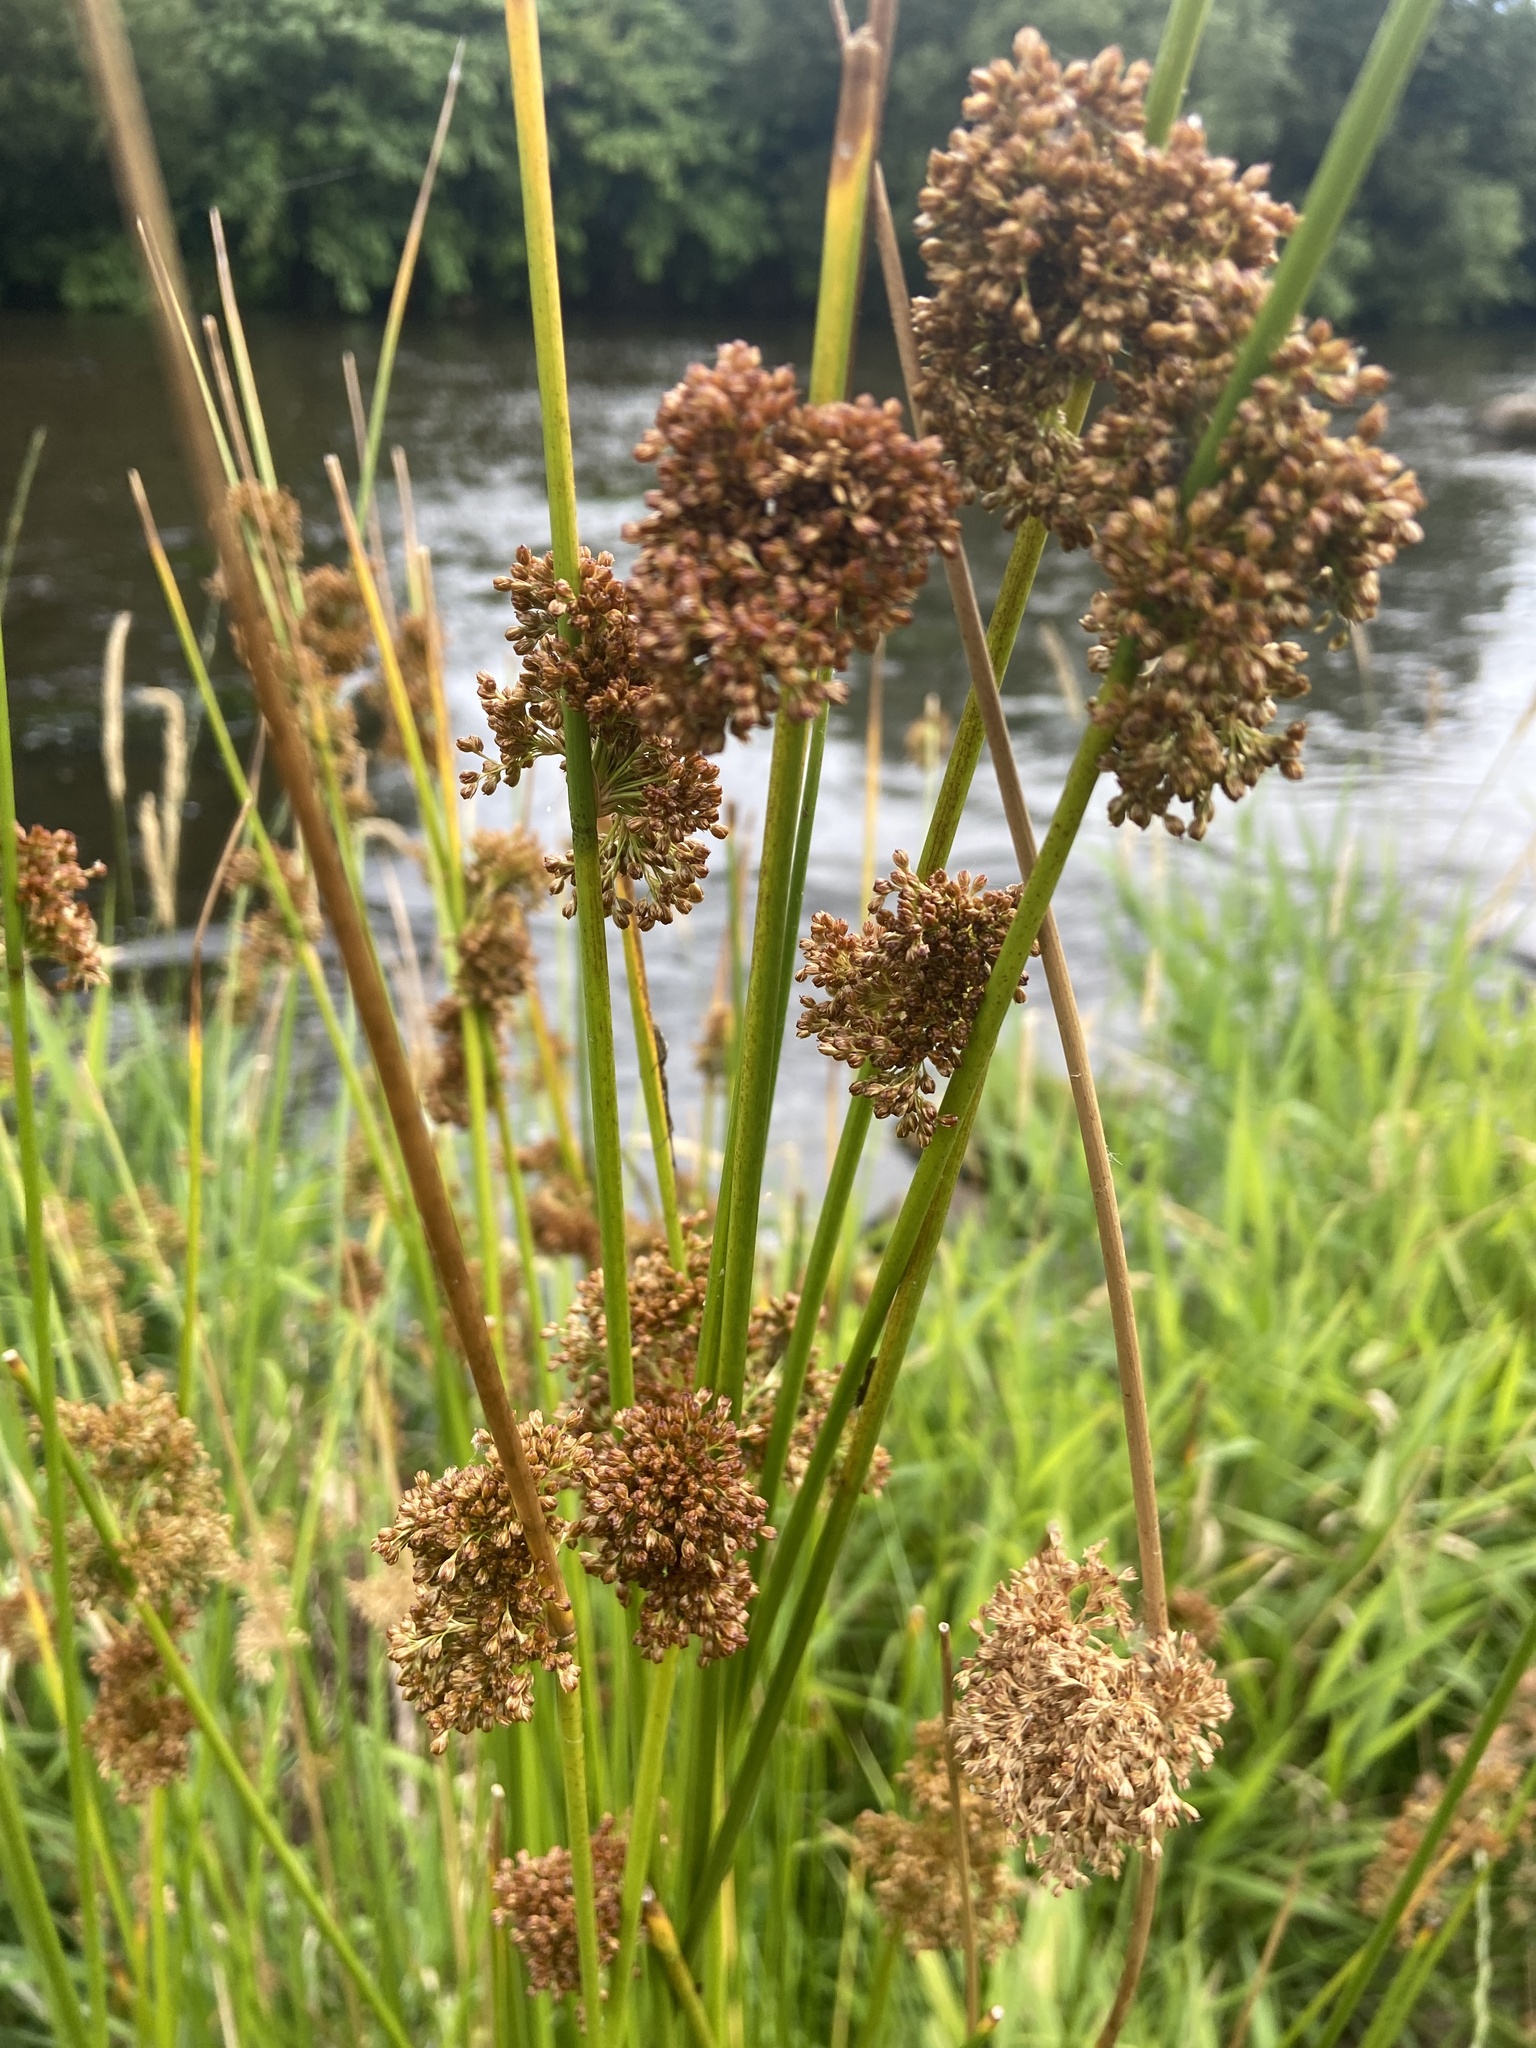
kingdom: Plantae
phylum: Tracheophyta
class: Liliopsida
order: Poales
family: Juncaceae
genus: Juncus
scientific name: Juncus effusus
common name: Soft rush
